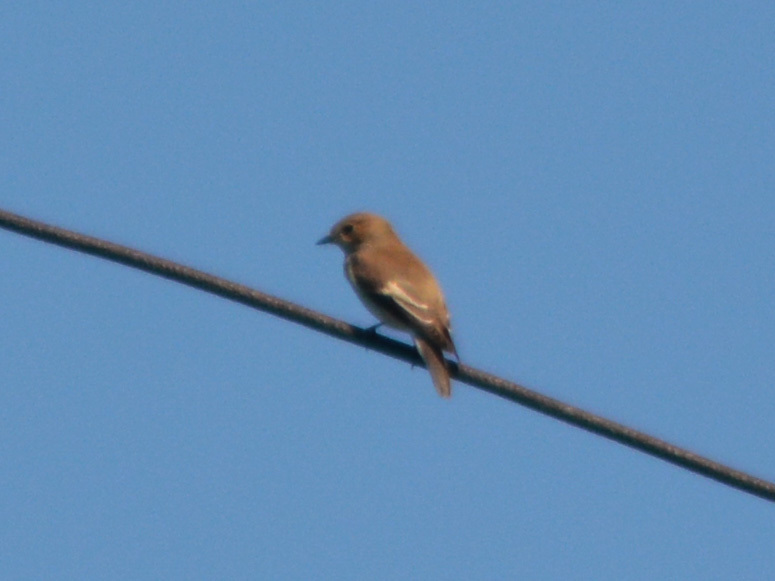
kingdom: Animalia
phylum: Chordata
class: Aves
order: Passeriformes
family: Muscicapidae
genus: Ficedula
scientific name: Ficedula hypoleuca
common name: European pied flycatcher
